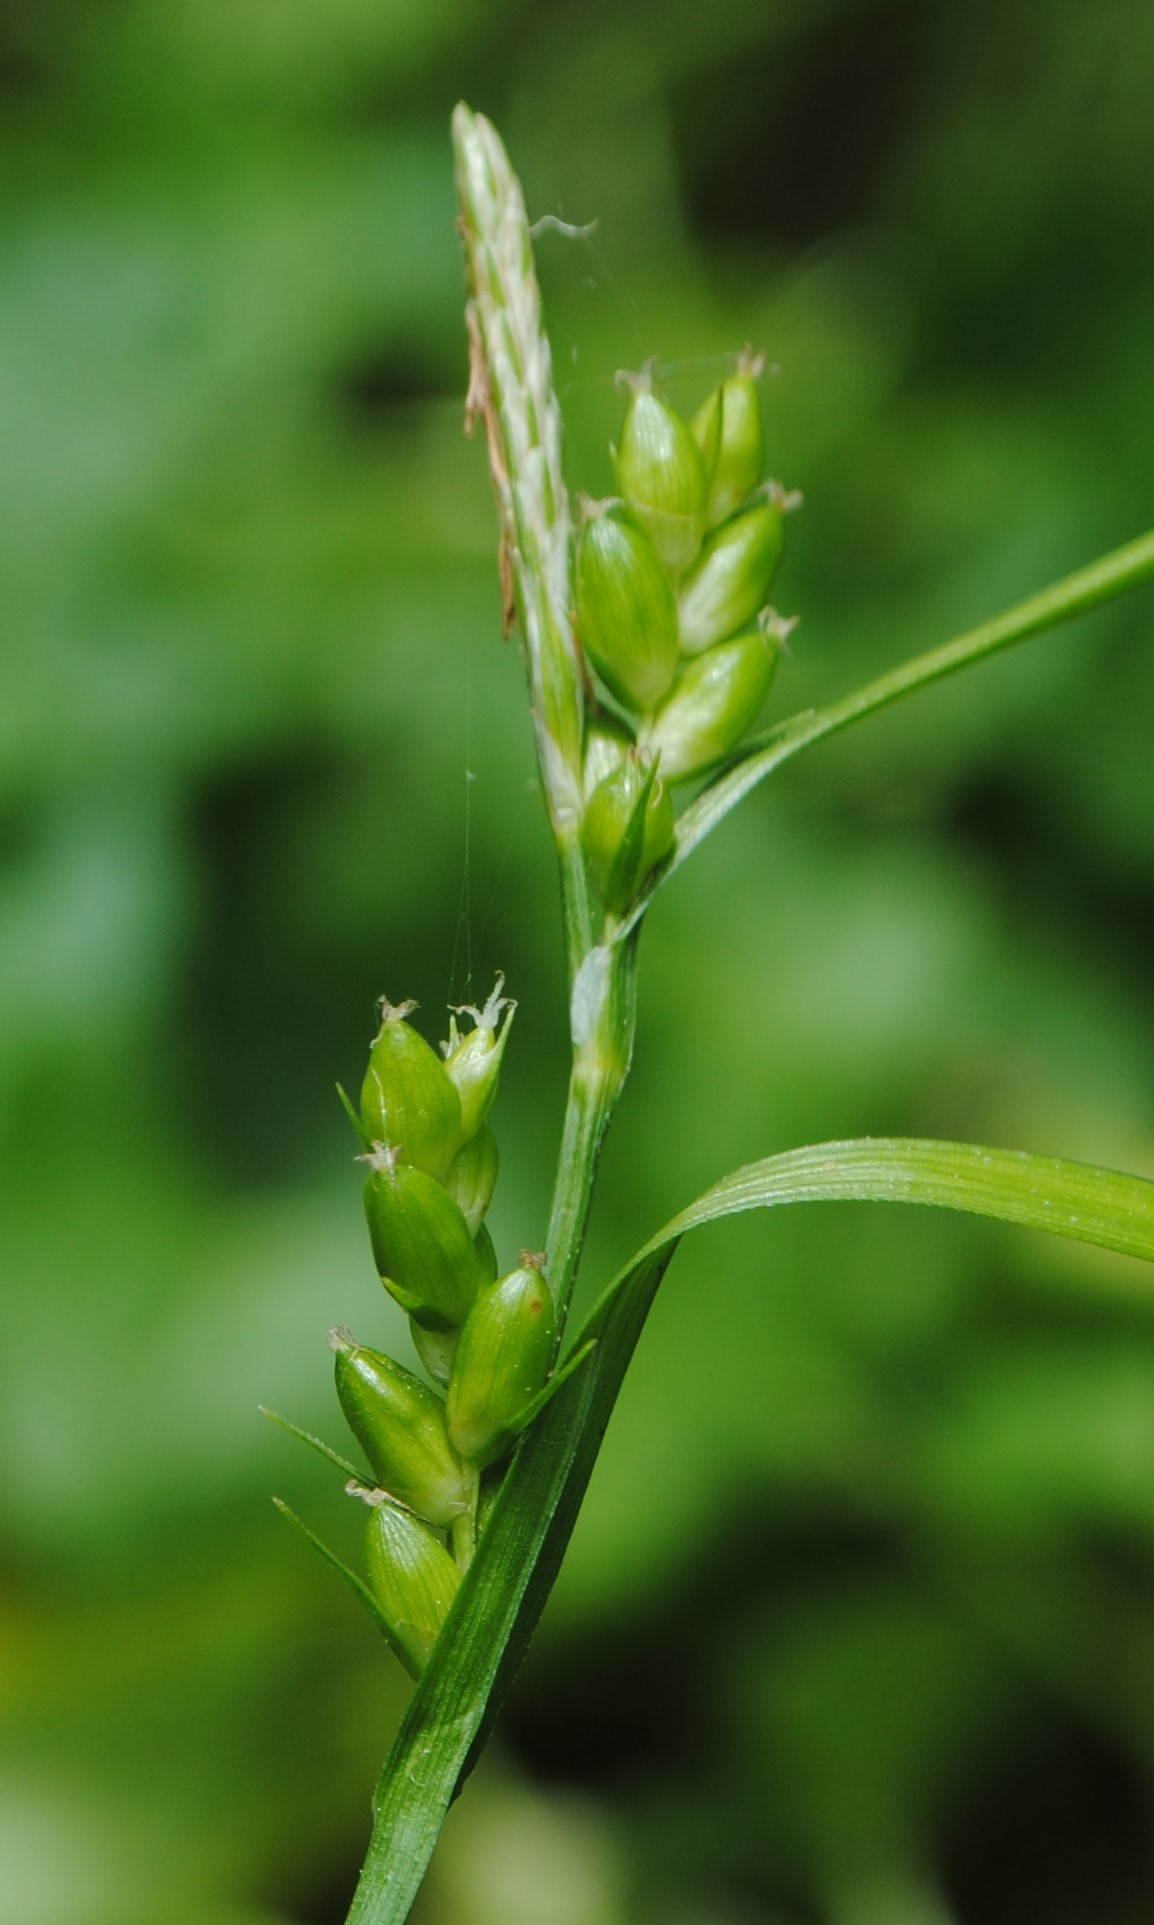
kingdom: Plantae
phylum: Tracheophyta
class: Liliopsida
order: Poales
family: Cyperaceae
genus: Carex
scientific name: Carex grisea
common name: Eastern narrow-leaved sedge
